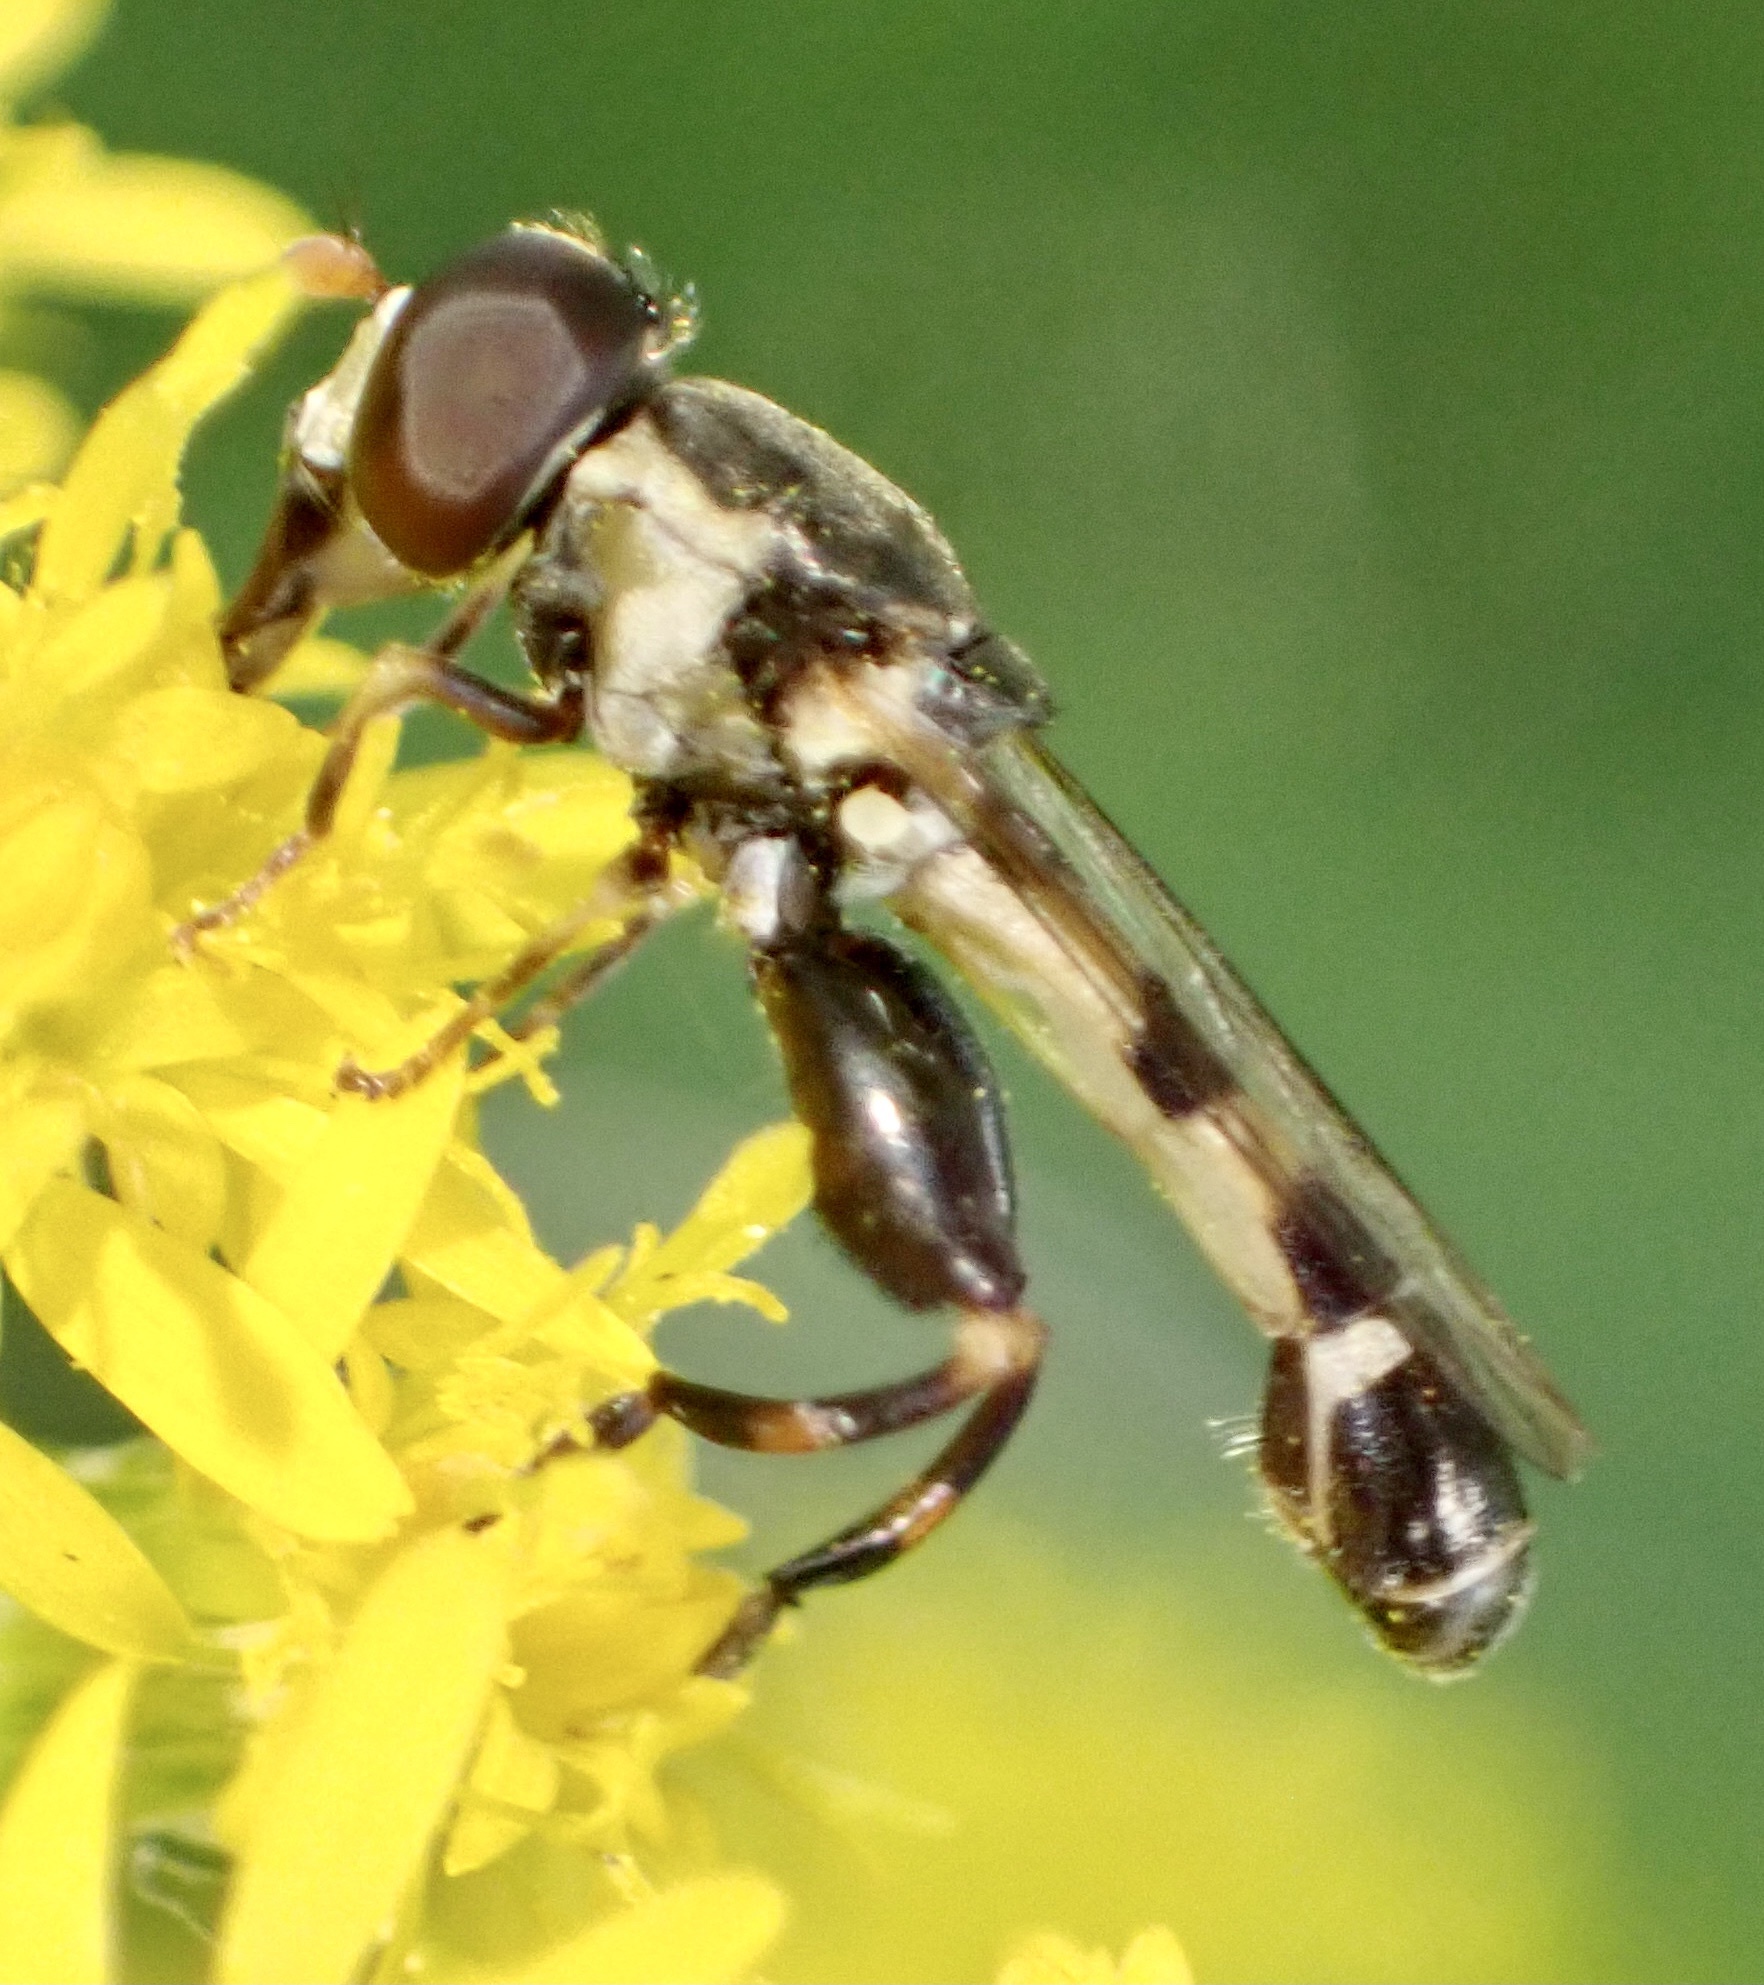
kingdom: Animalia
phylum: Arthropoda
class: Insecta
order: Diptera
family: Syrphidae
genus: Syritta
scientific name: Syritta pipiens
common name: Hover fly
